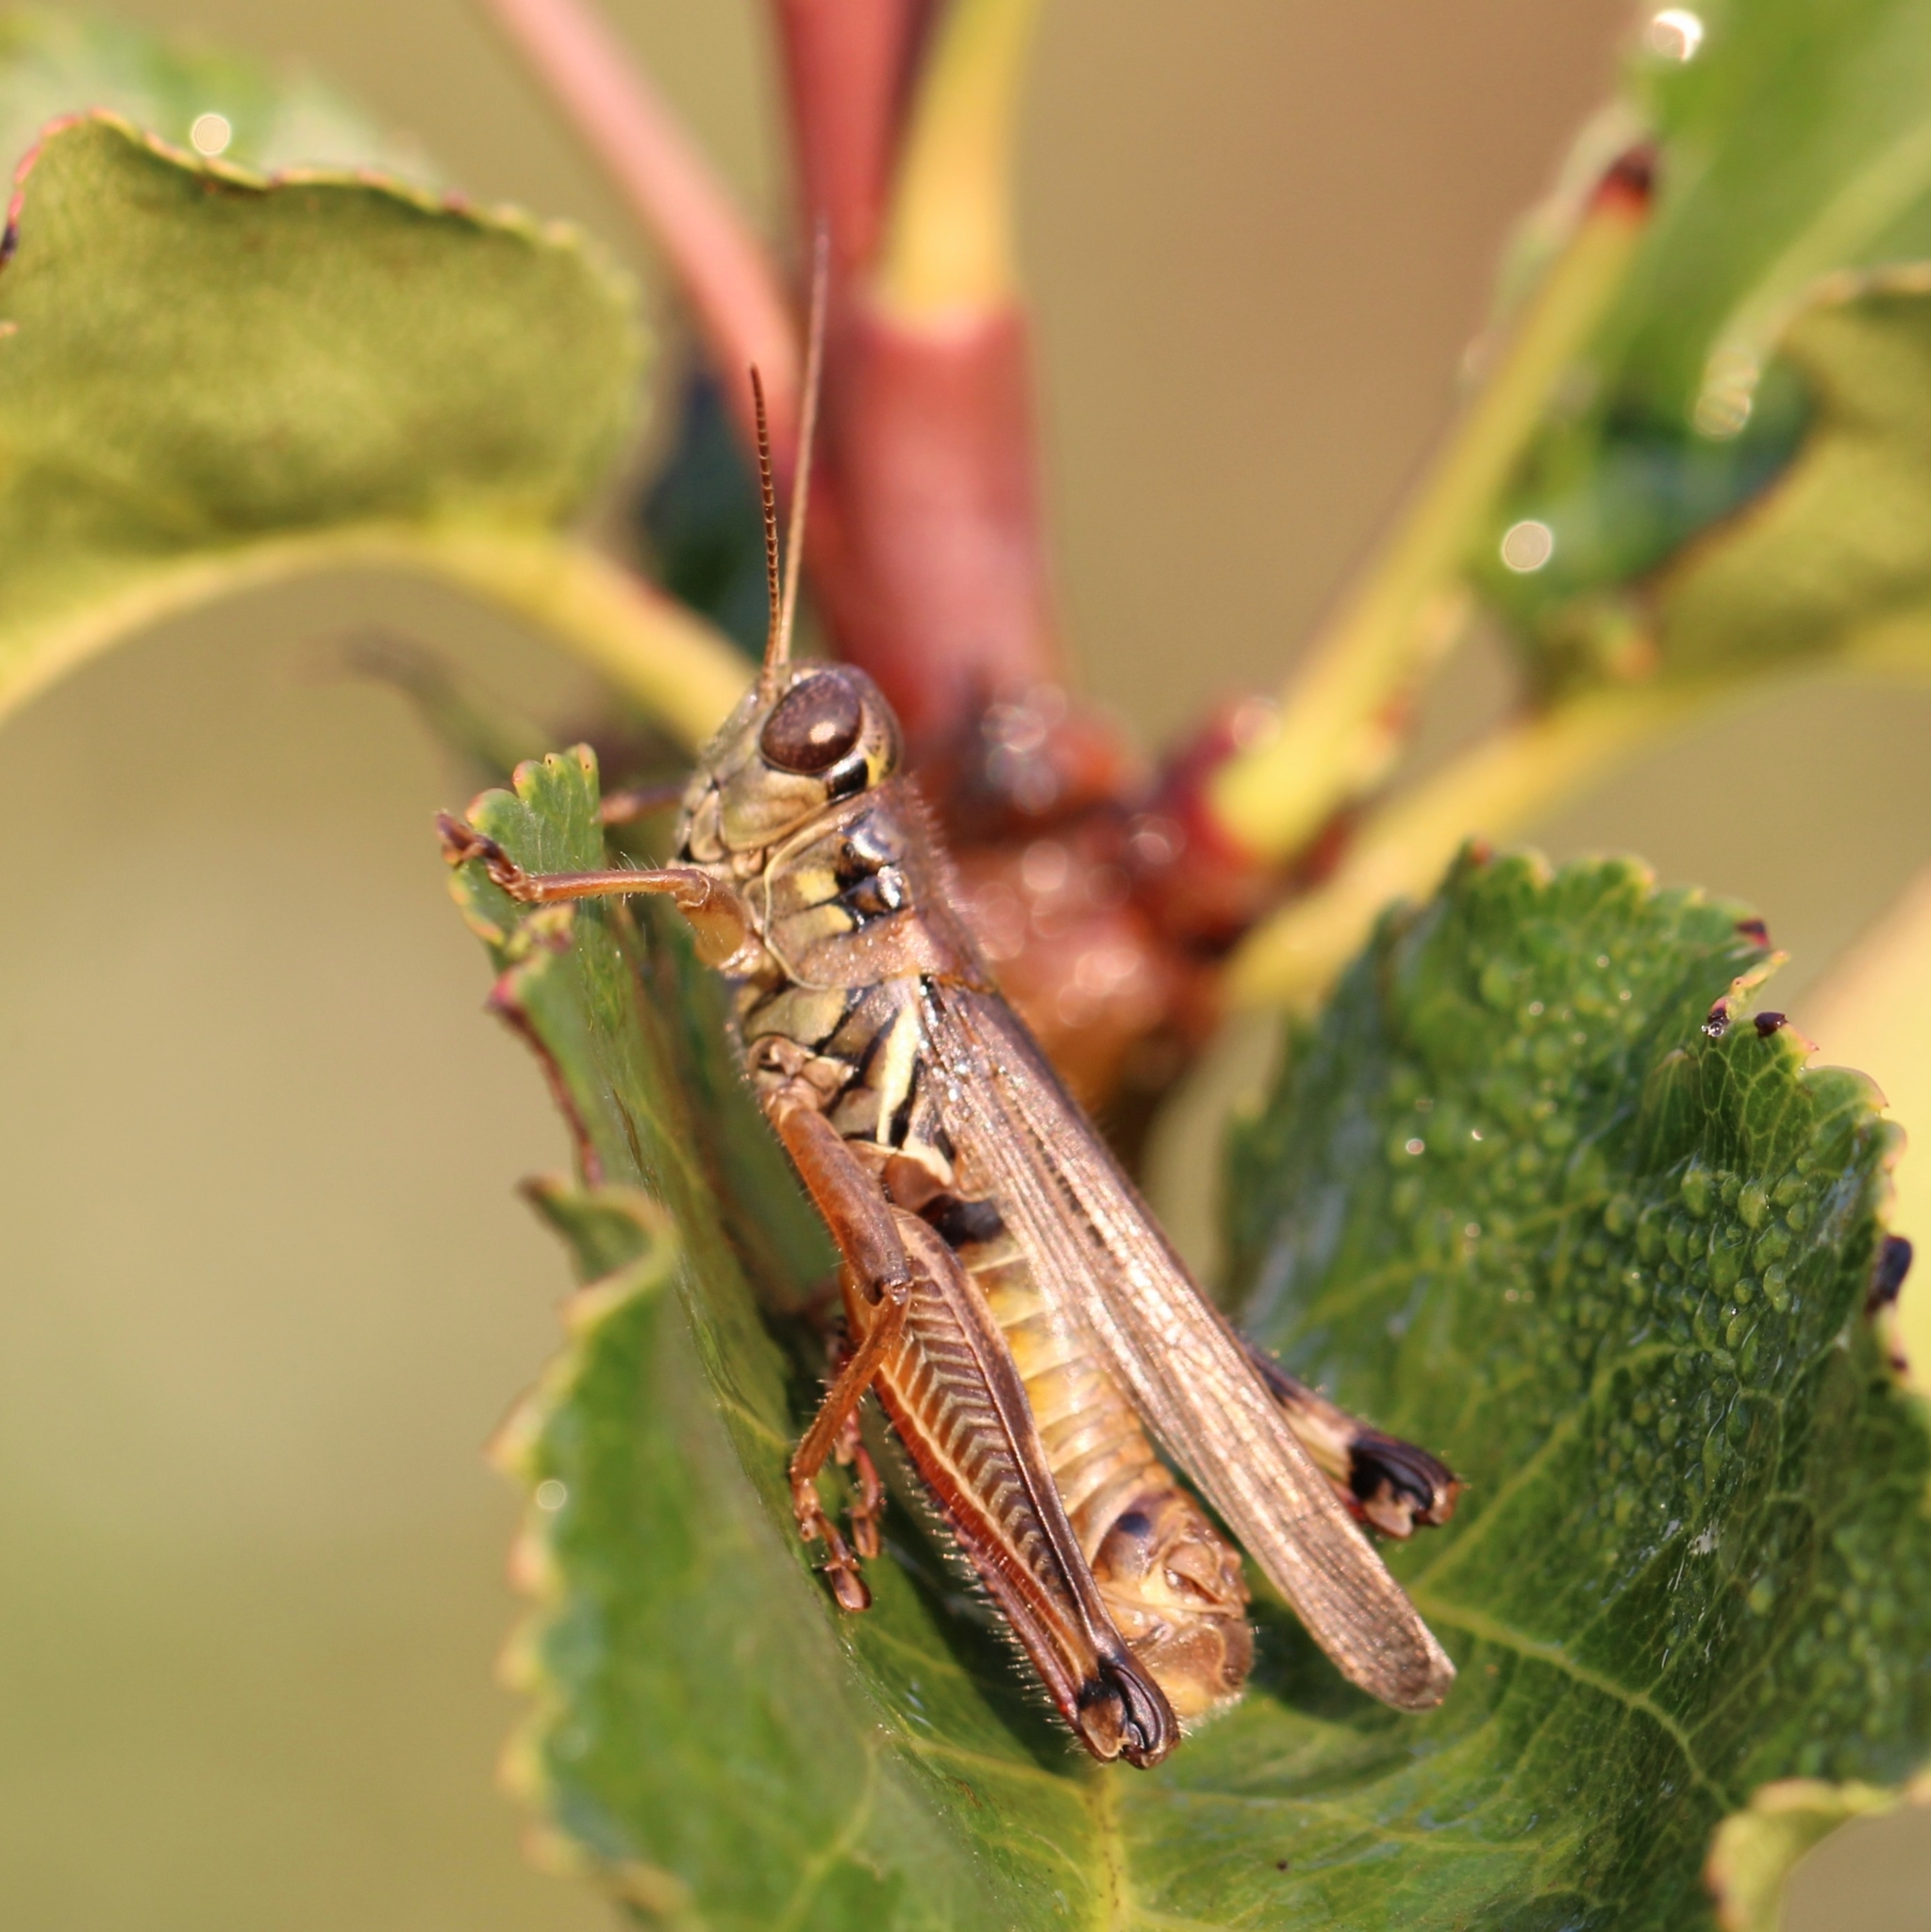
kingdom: Animalia
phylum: Arthropoda
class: Insecta
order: Orthoptera
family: Acrididae
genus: Melanoplus
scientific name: Melanoplus femurrubrum
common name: Red-legged grasshopper
